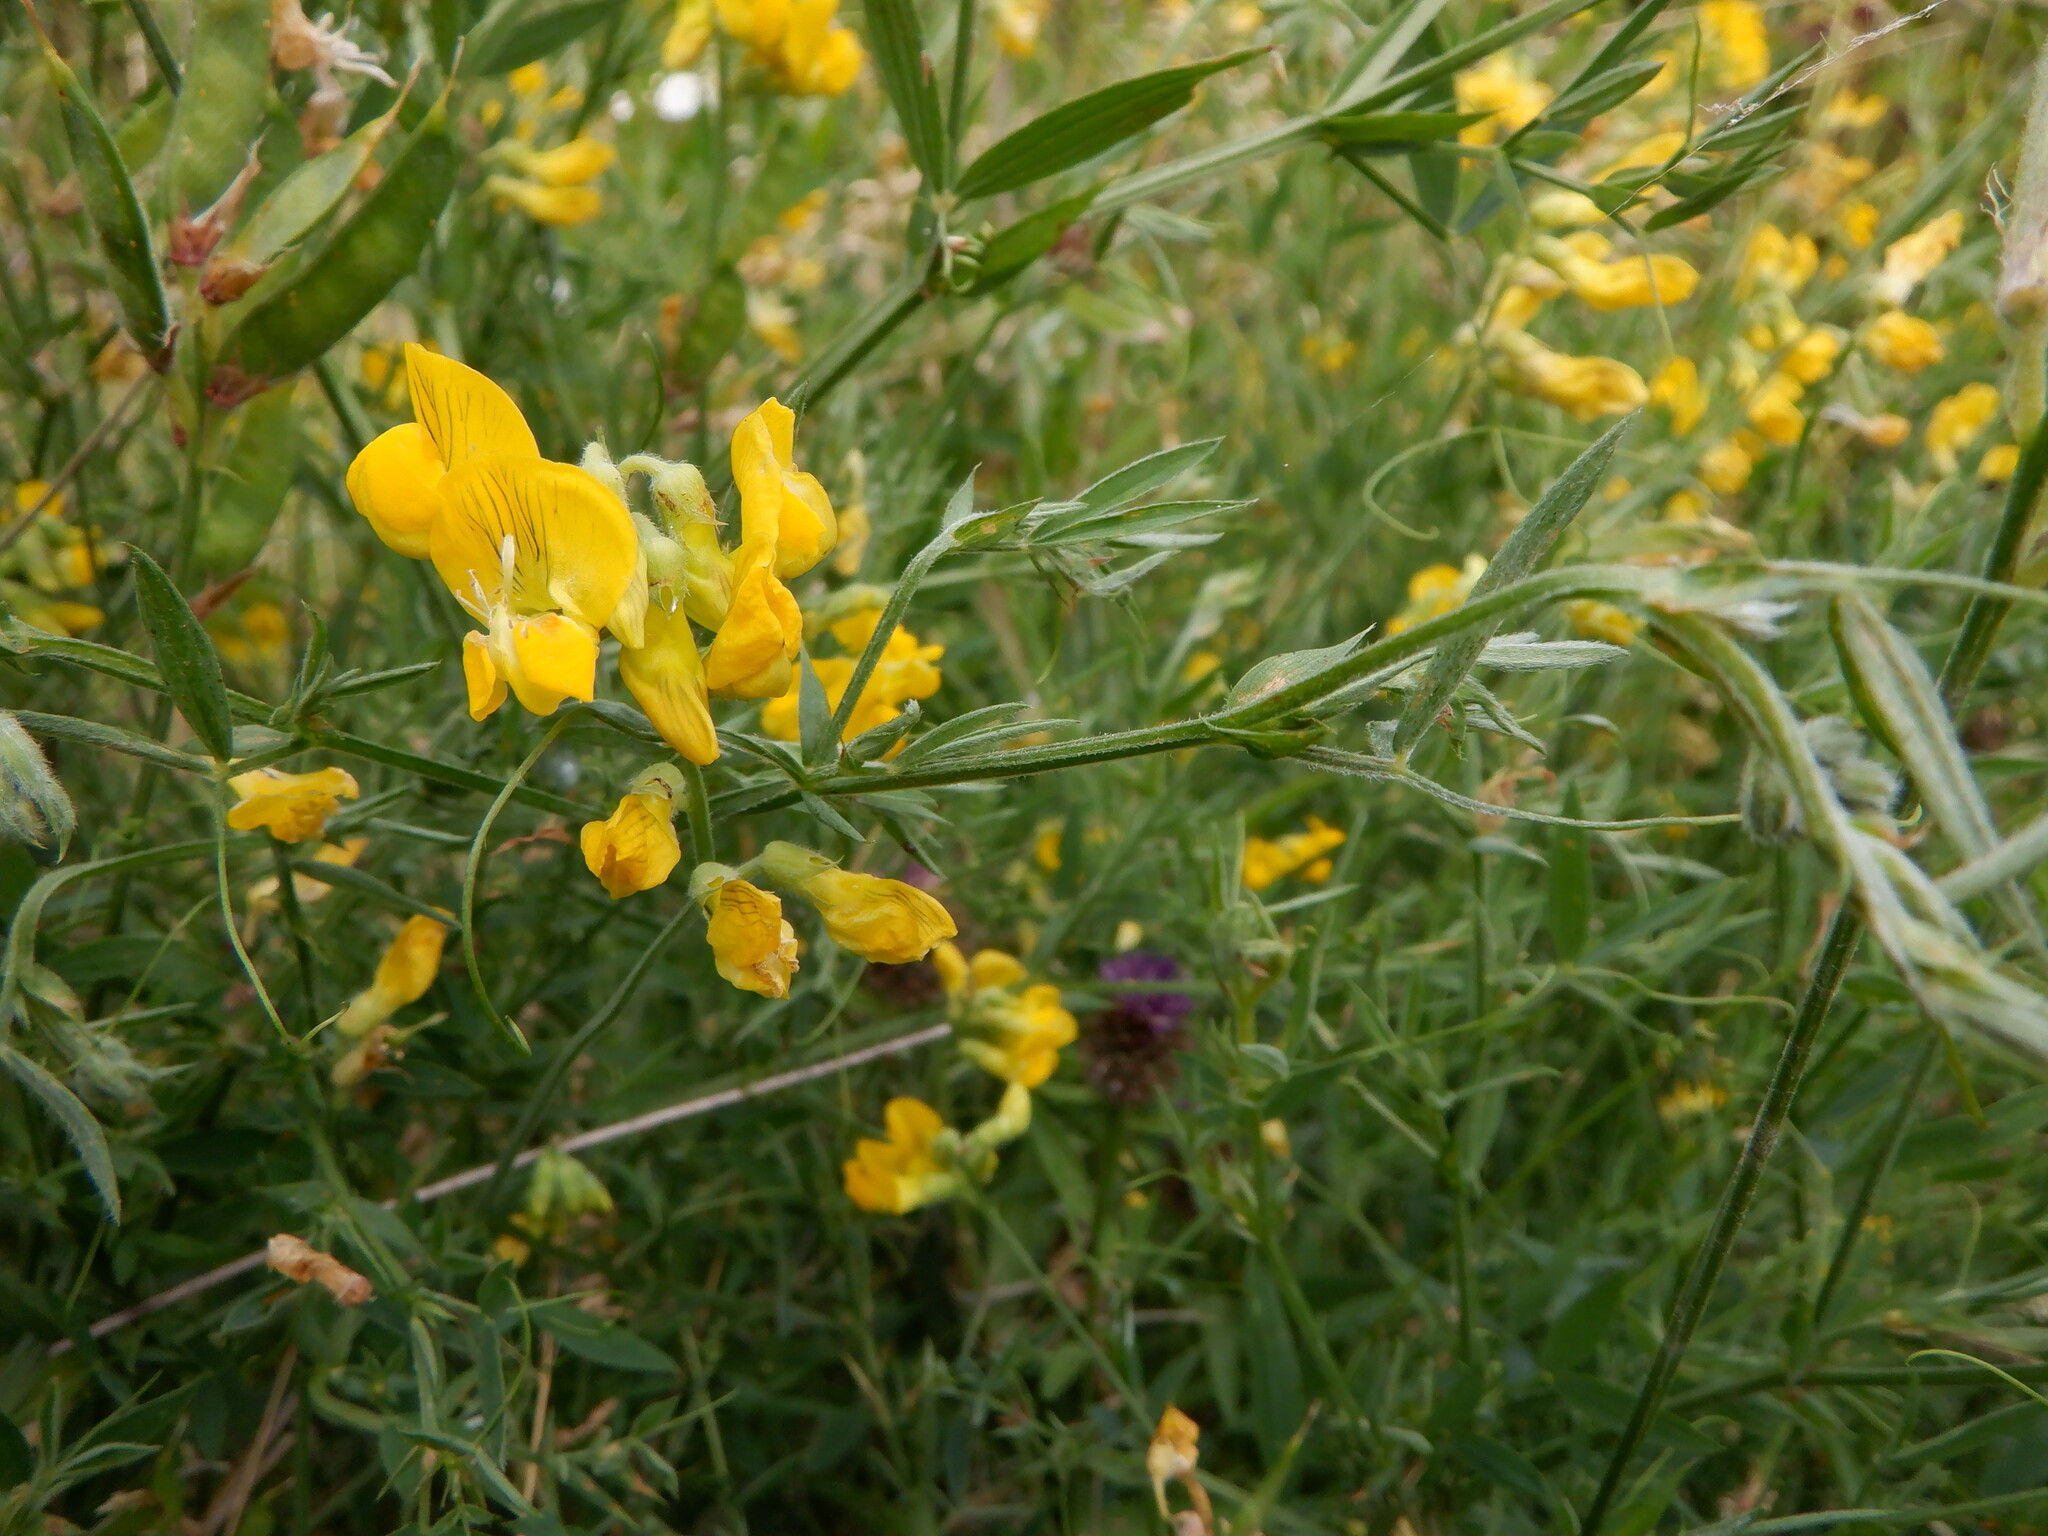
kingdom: Plantae
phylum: Tracheophyta
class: Magnoliopsida
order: Fabales
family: Fabaceae
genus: Lathyrus
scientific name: Lathyrus pratensis
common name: Meadow vetchling
